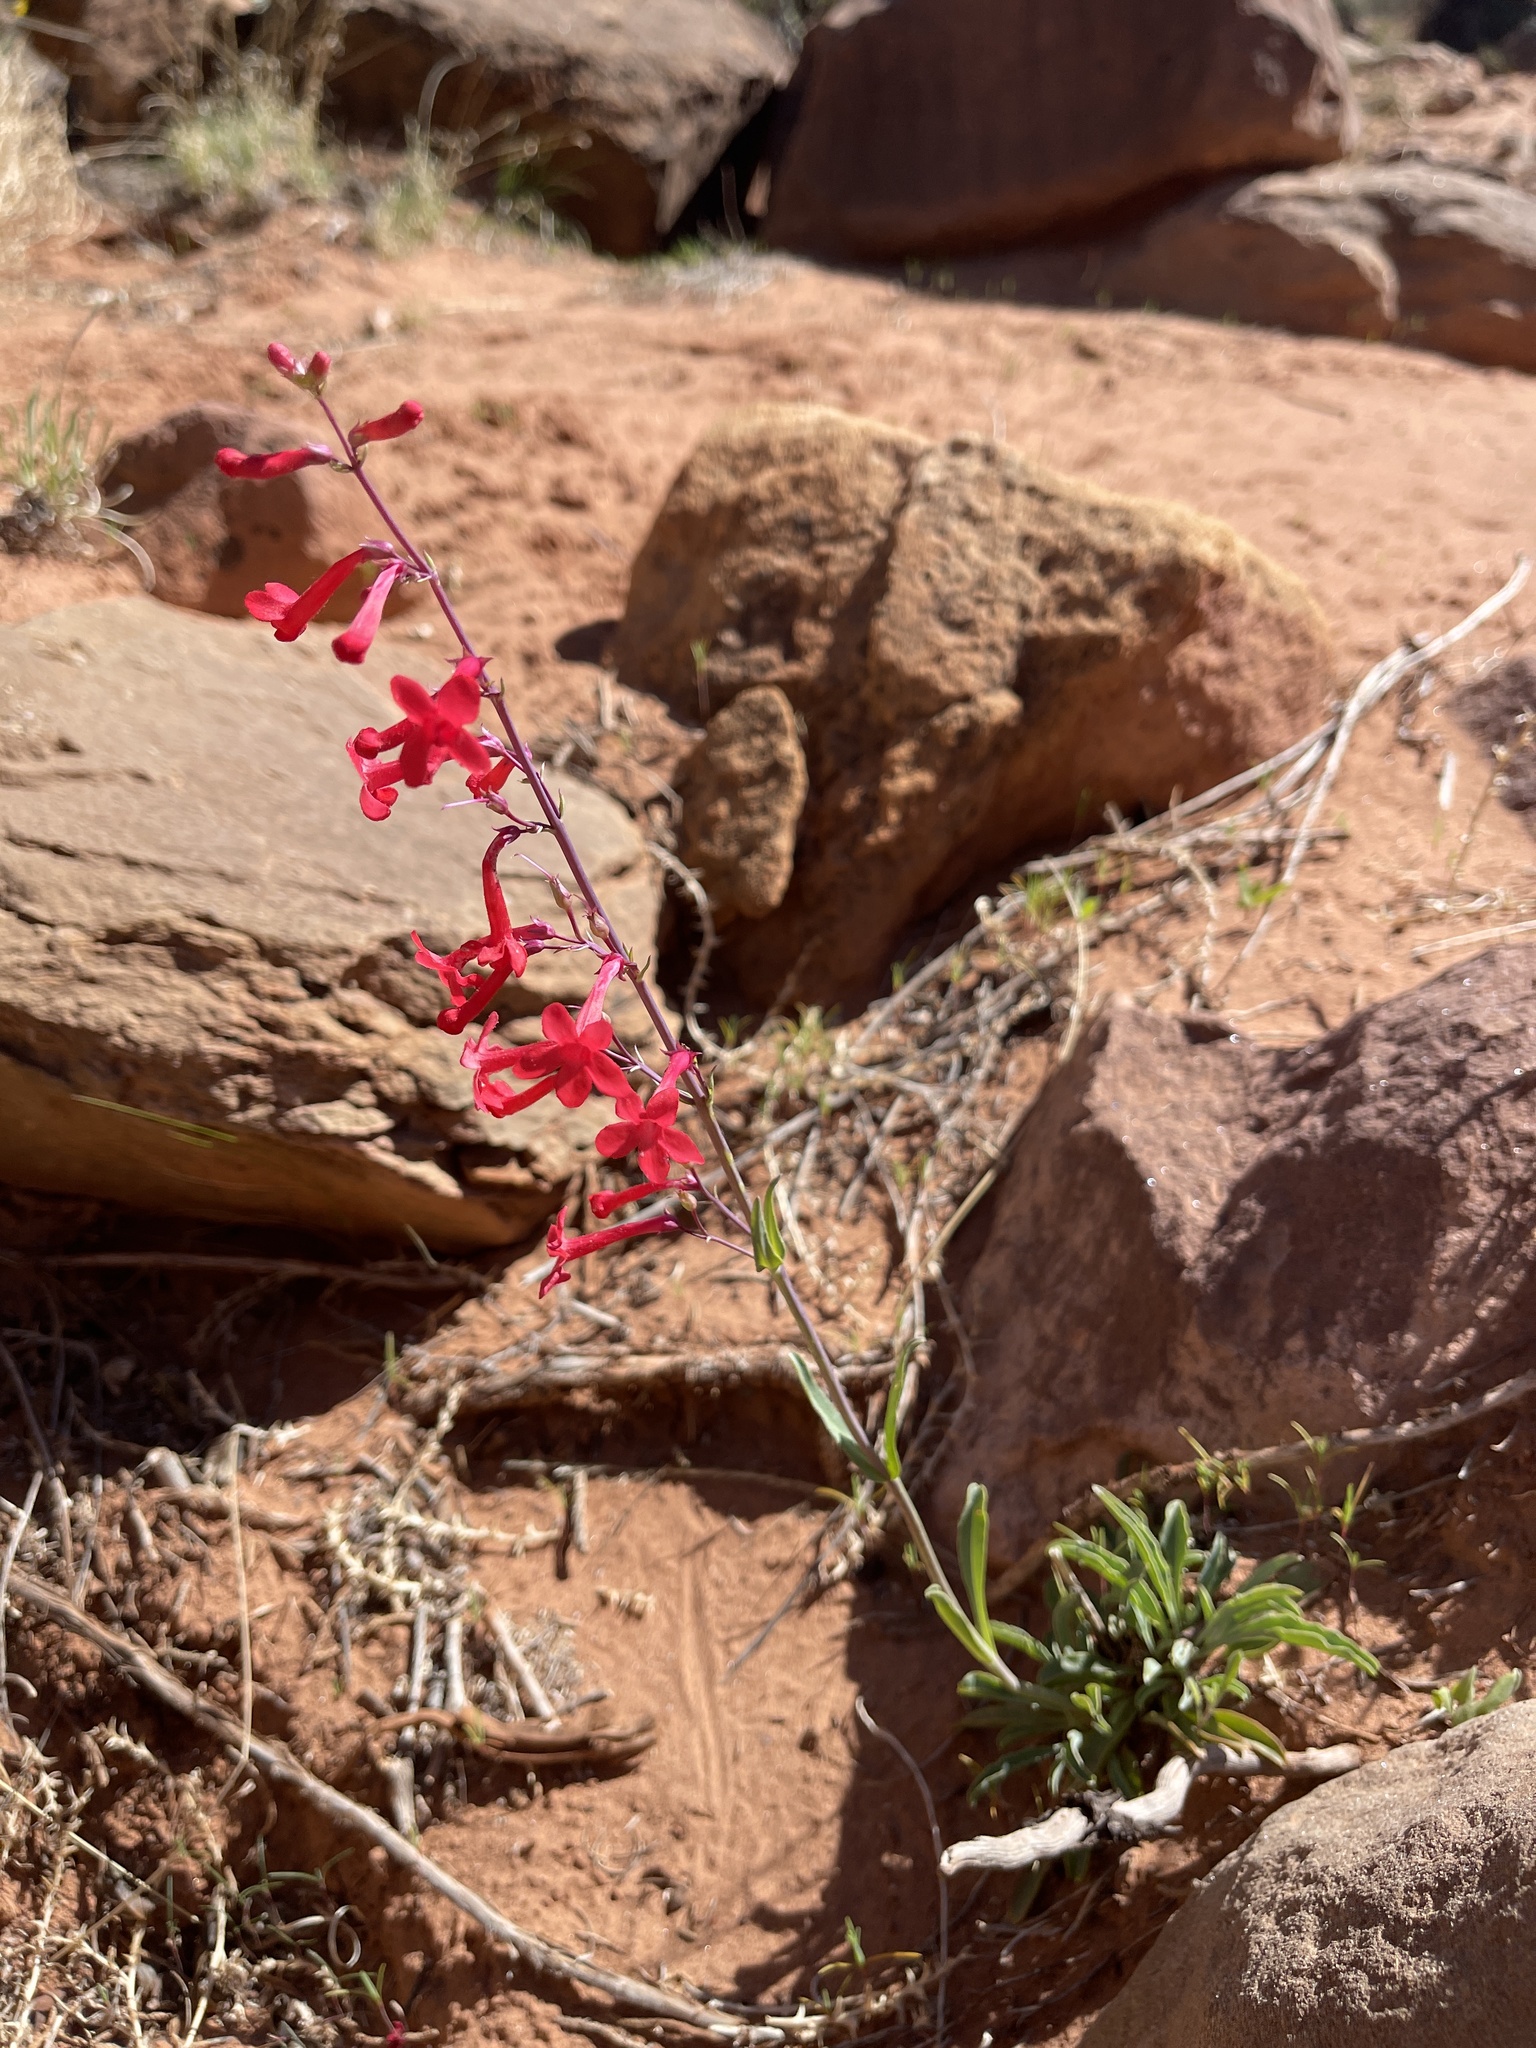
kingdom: Plantae
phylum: Tracheophyta
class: Magnoliopsida
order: Lamiales
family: Plantaginaceae
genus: Penstemon
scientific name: Penstemon utahensis
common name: Utah penstemon
